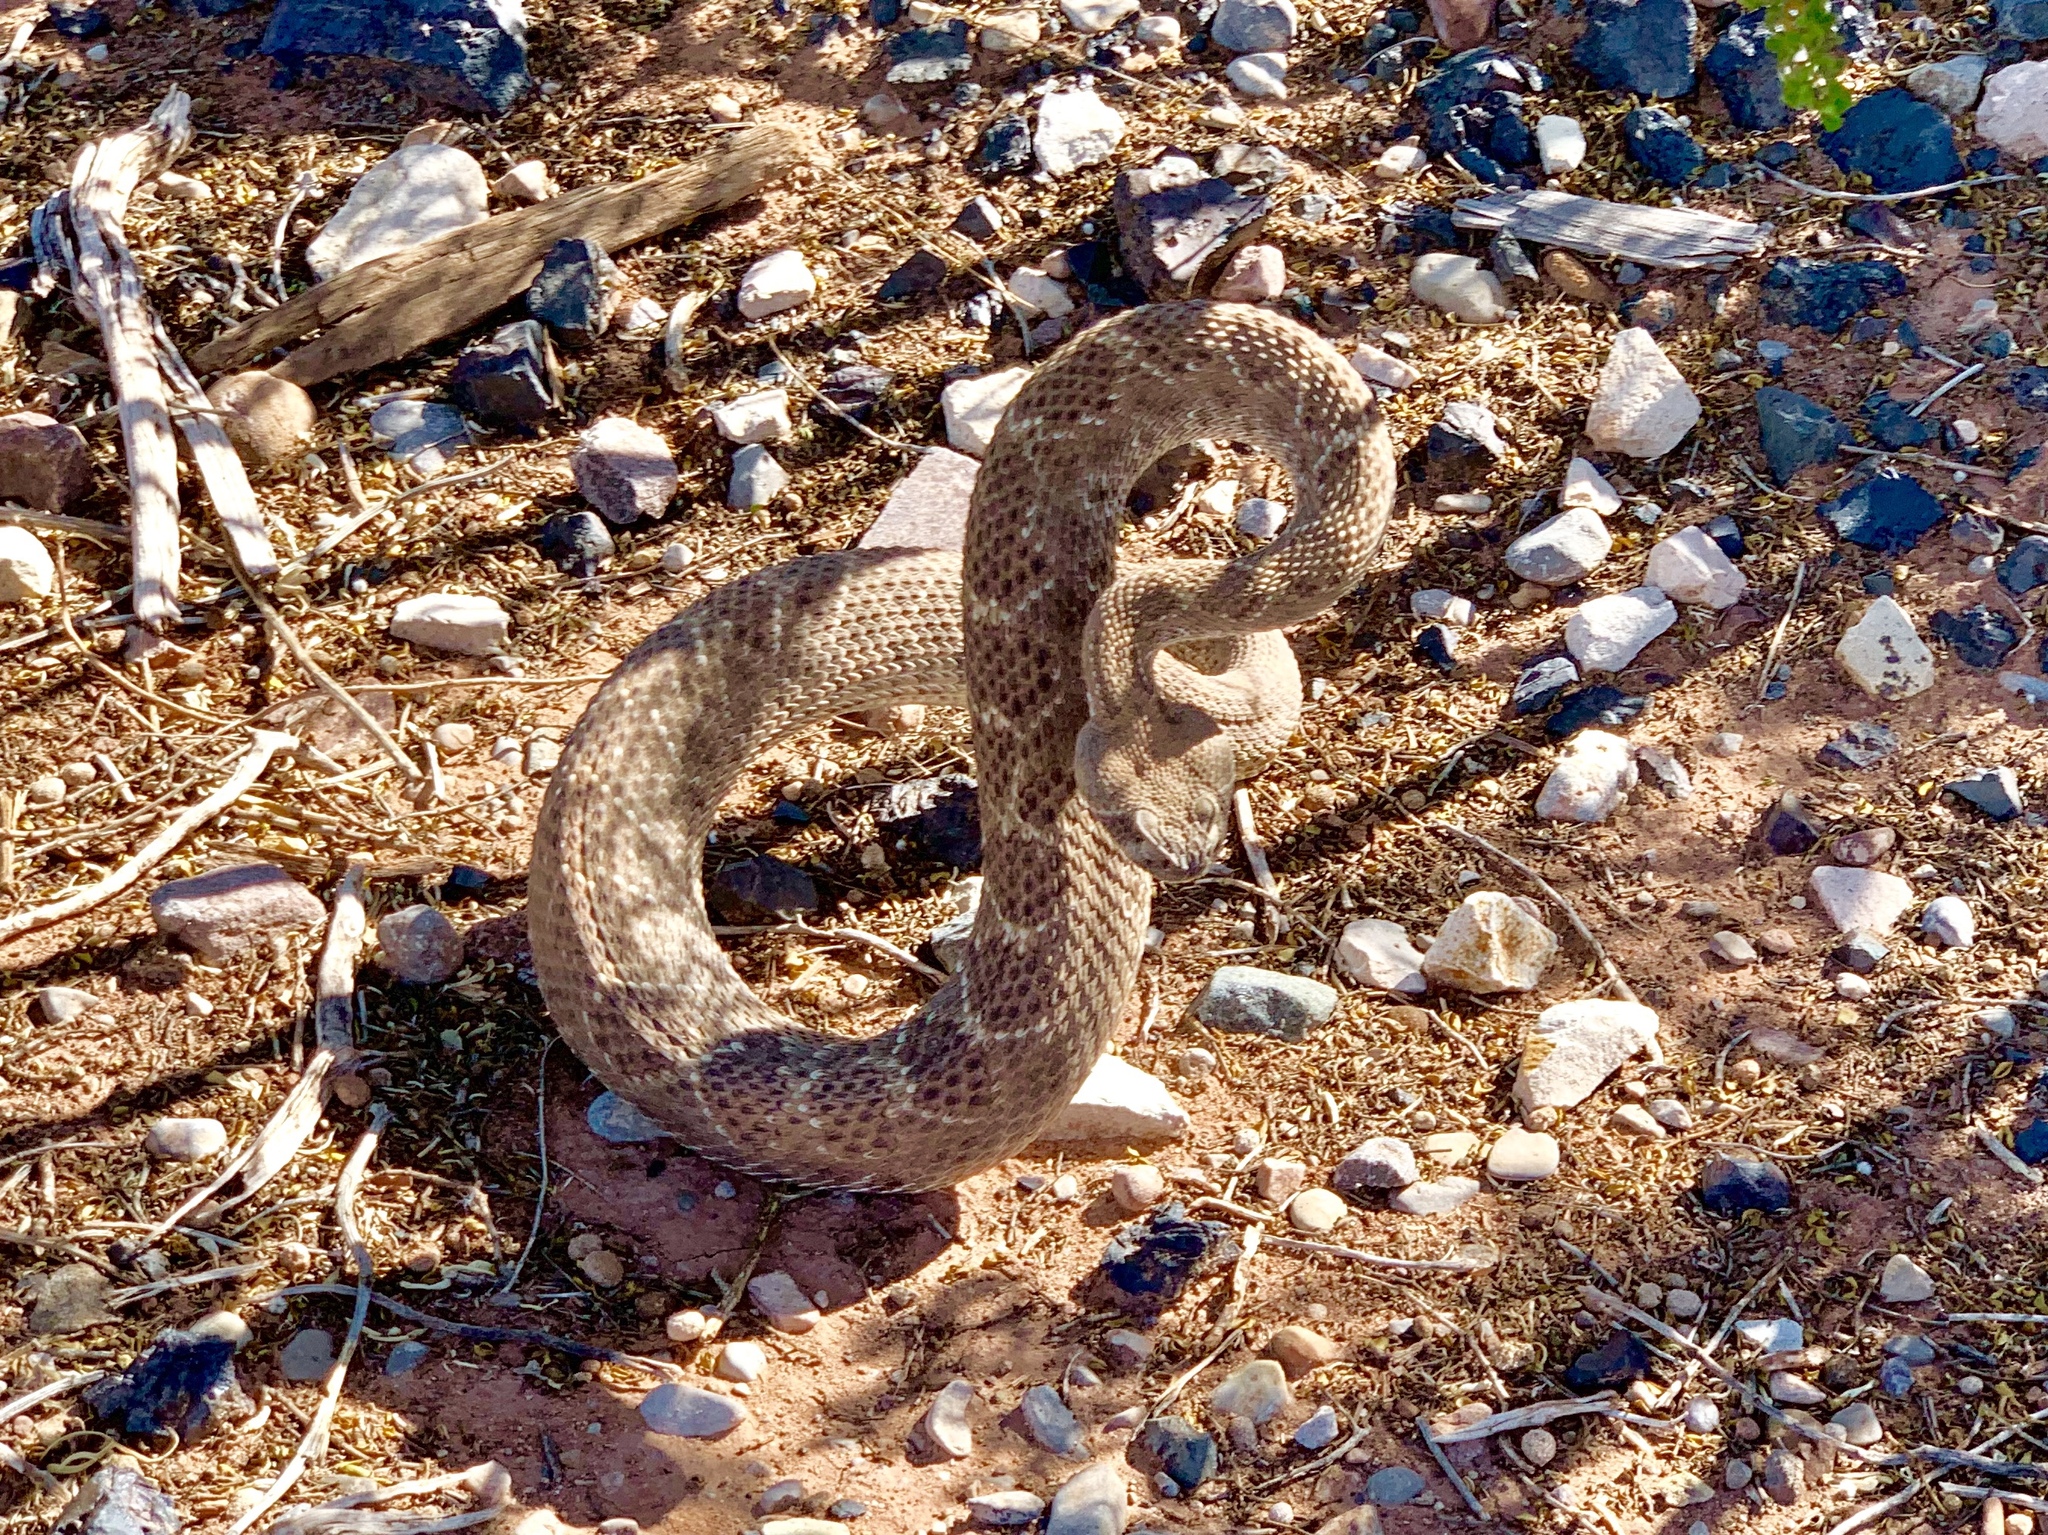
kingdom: Animalia
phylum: Chordata
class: Squamata
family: Viperidae
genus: Crotalus
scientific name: Crotalus atrox
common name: Western diamond-backed rattlesnake
